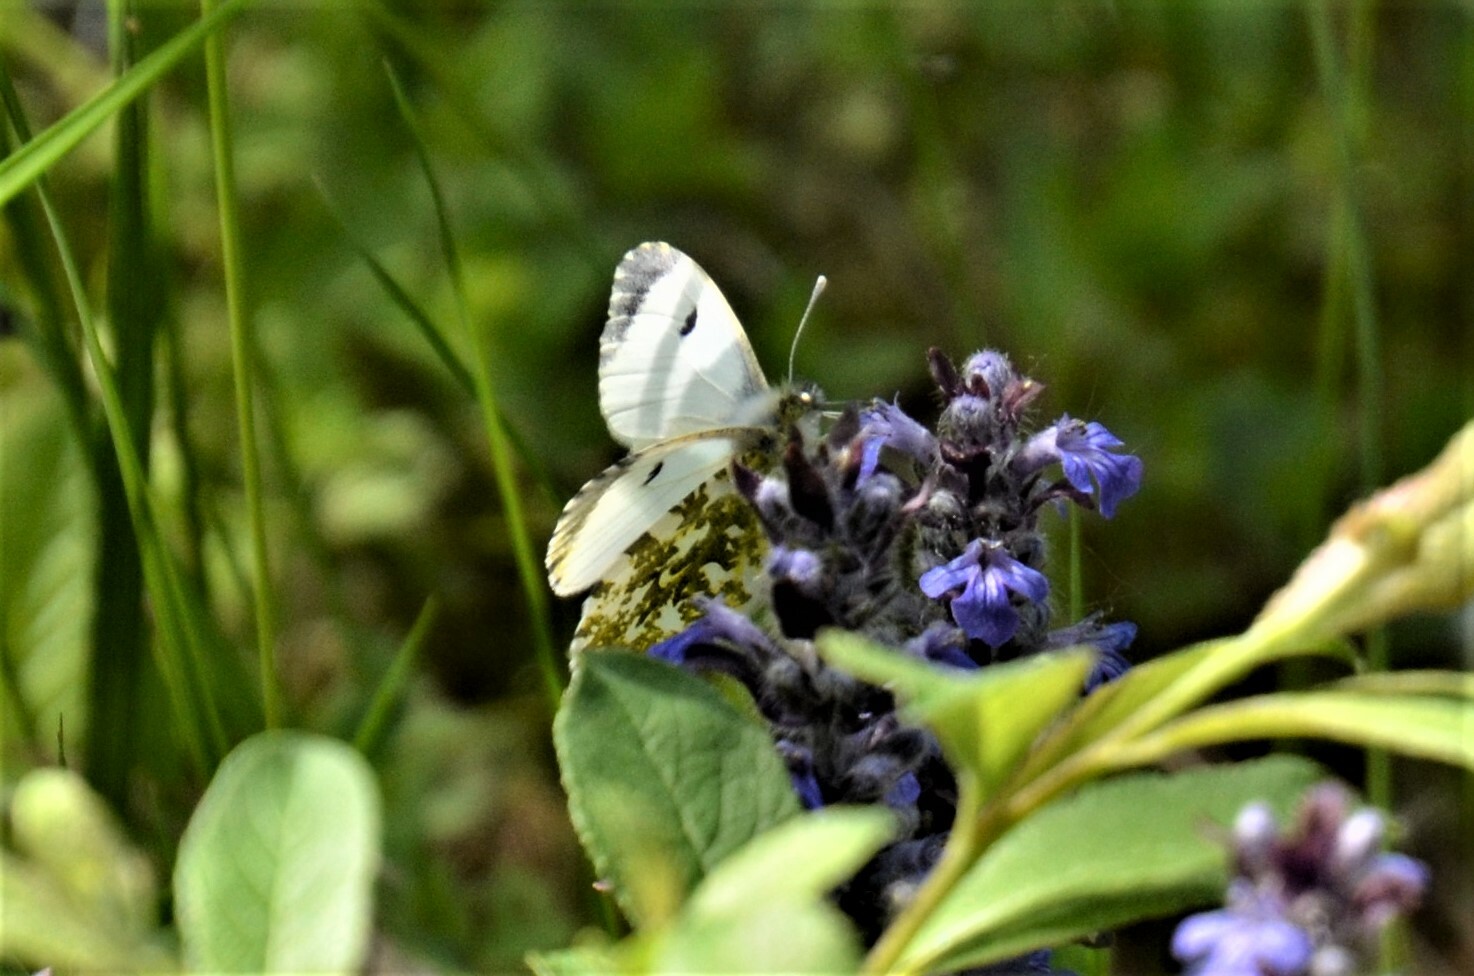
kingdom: Animalia
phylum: Arthropoda
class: Insecta
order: Lepidoptera
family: Pieridae
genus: Anthocharis
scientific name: Anthocharis cardamines
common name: Orange-tip
